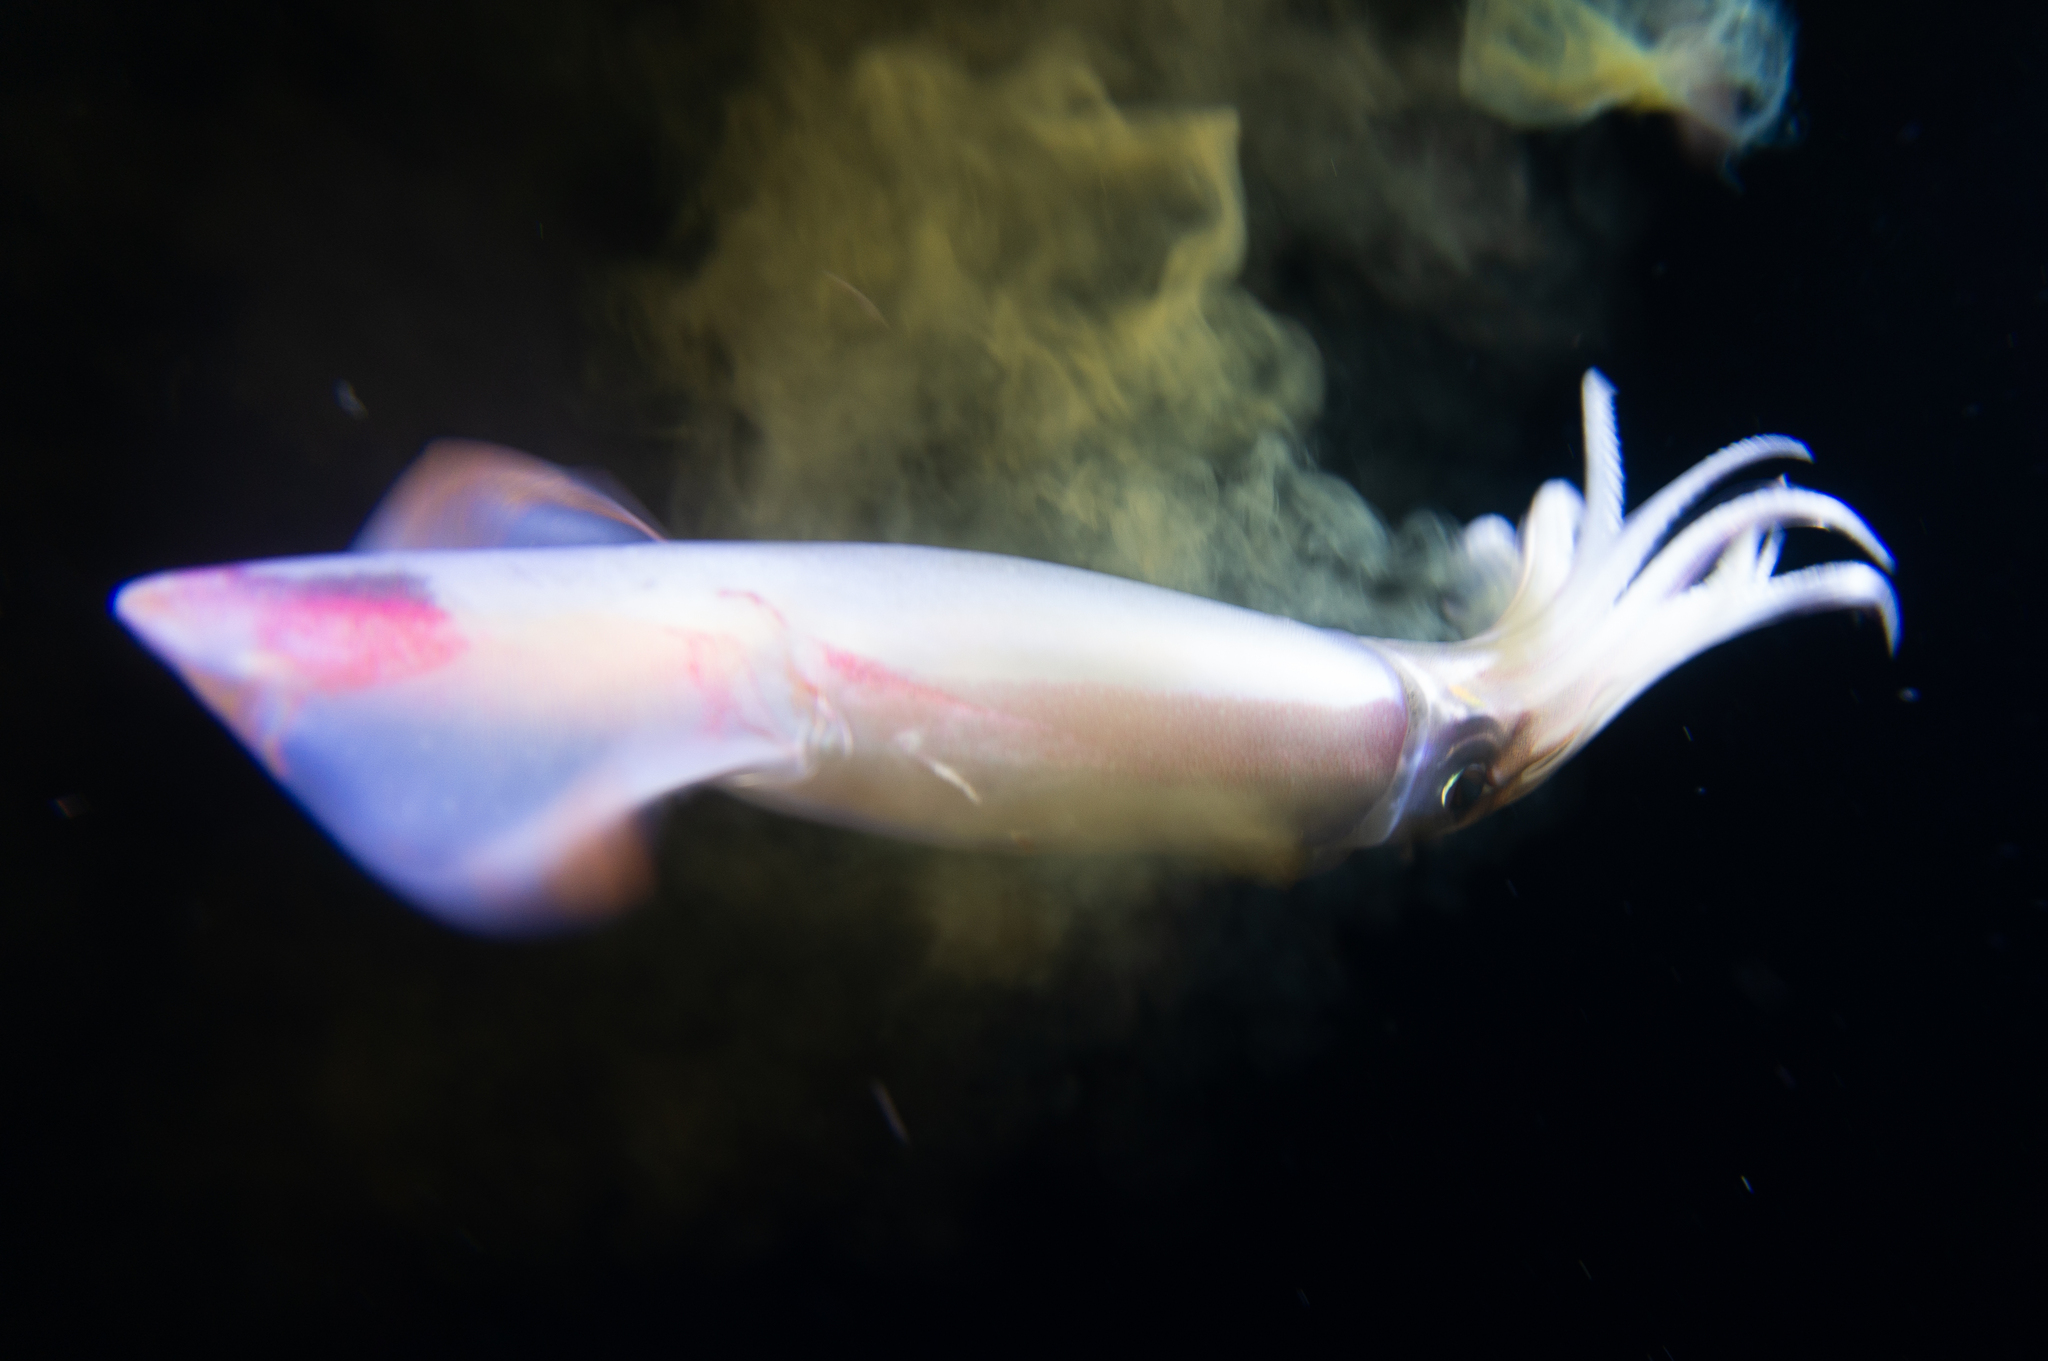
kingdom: Animalia
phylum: Mollusca
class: Cephalopoda
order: Oegopsida
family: Ommastrephidae
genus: Ommastrephes
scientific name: Ommastrephes bartramii
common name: Akaika
